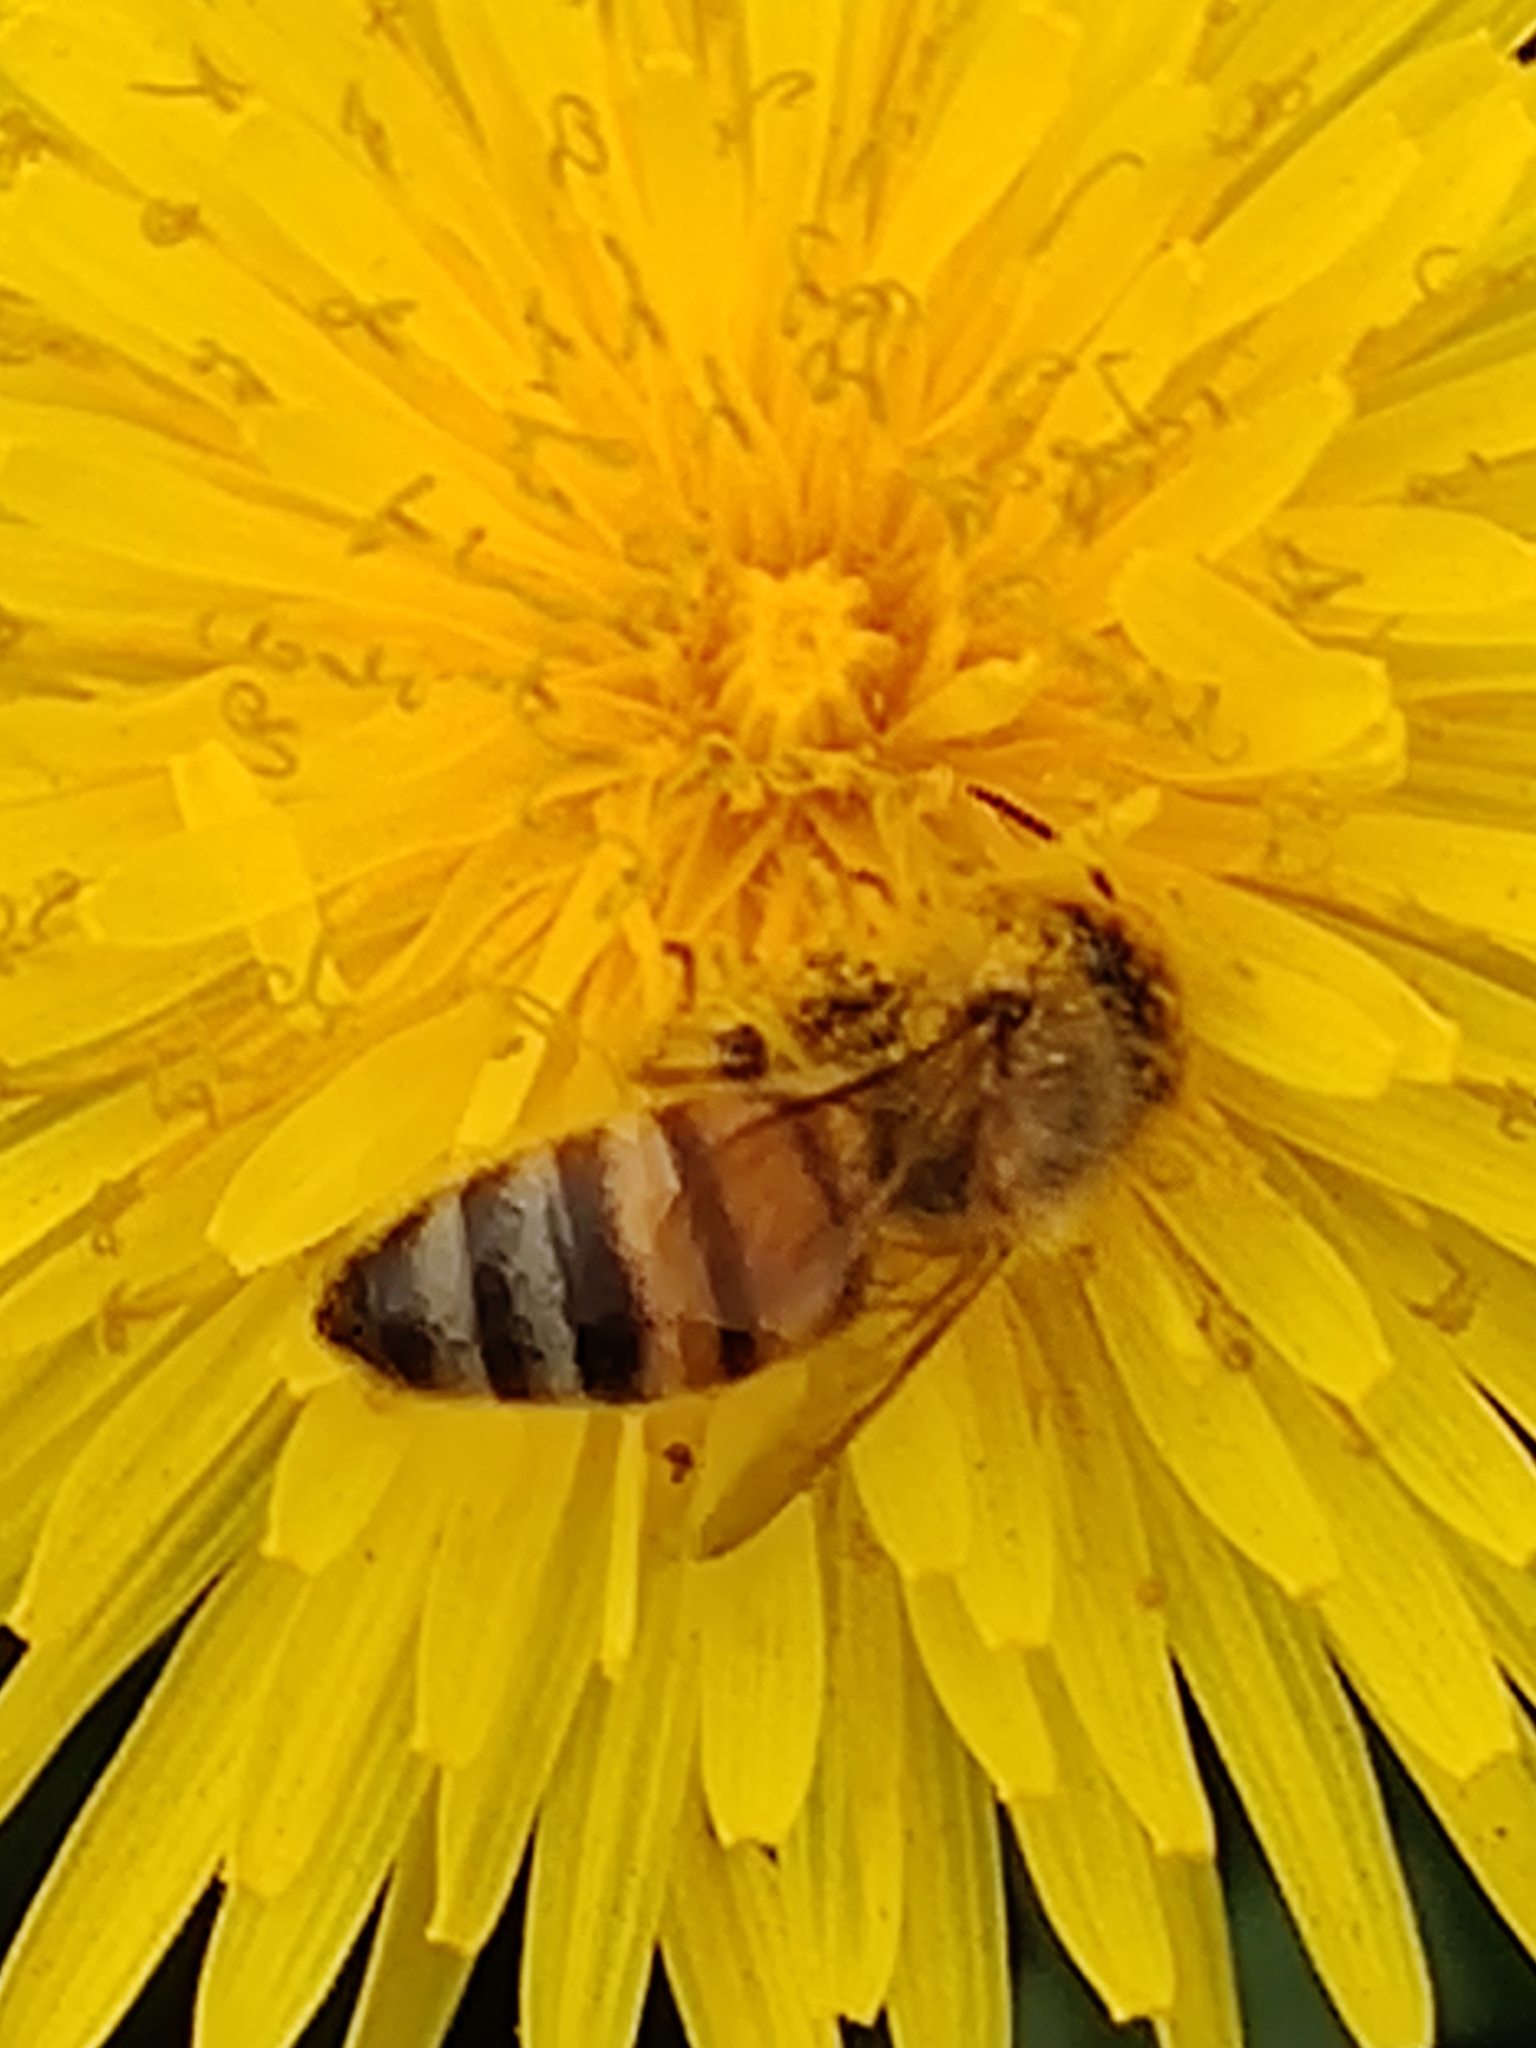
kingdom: Animalia
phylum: Arthropoda
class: Insecta
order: Hymenoptera
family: Apidae
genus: Apis
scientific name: Apis mellifera
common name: Honey bee
